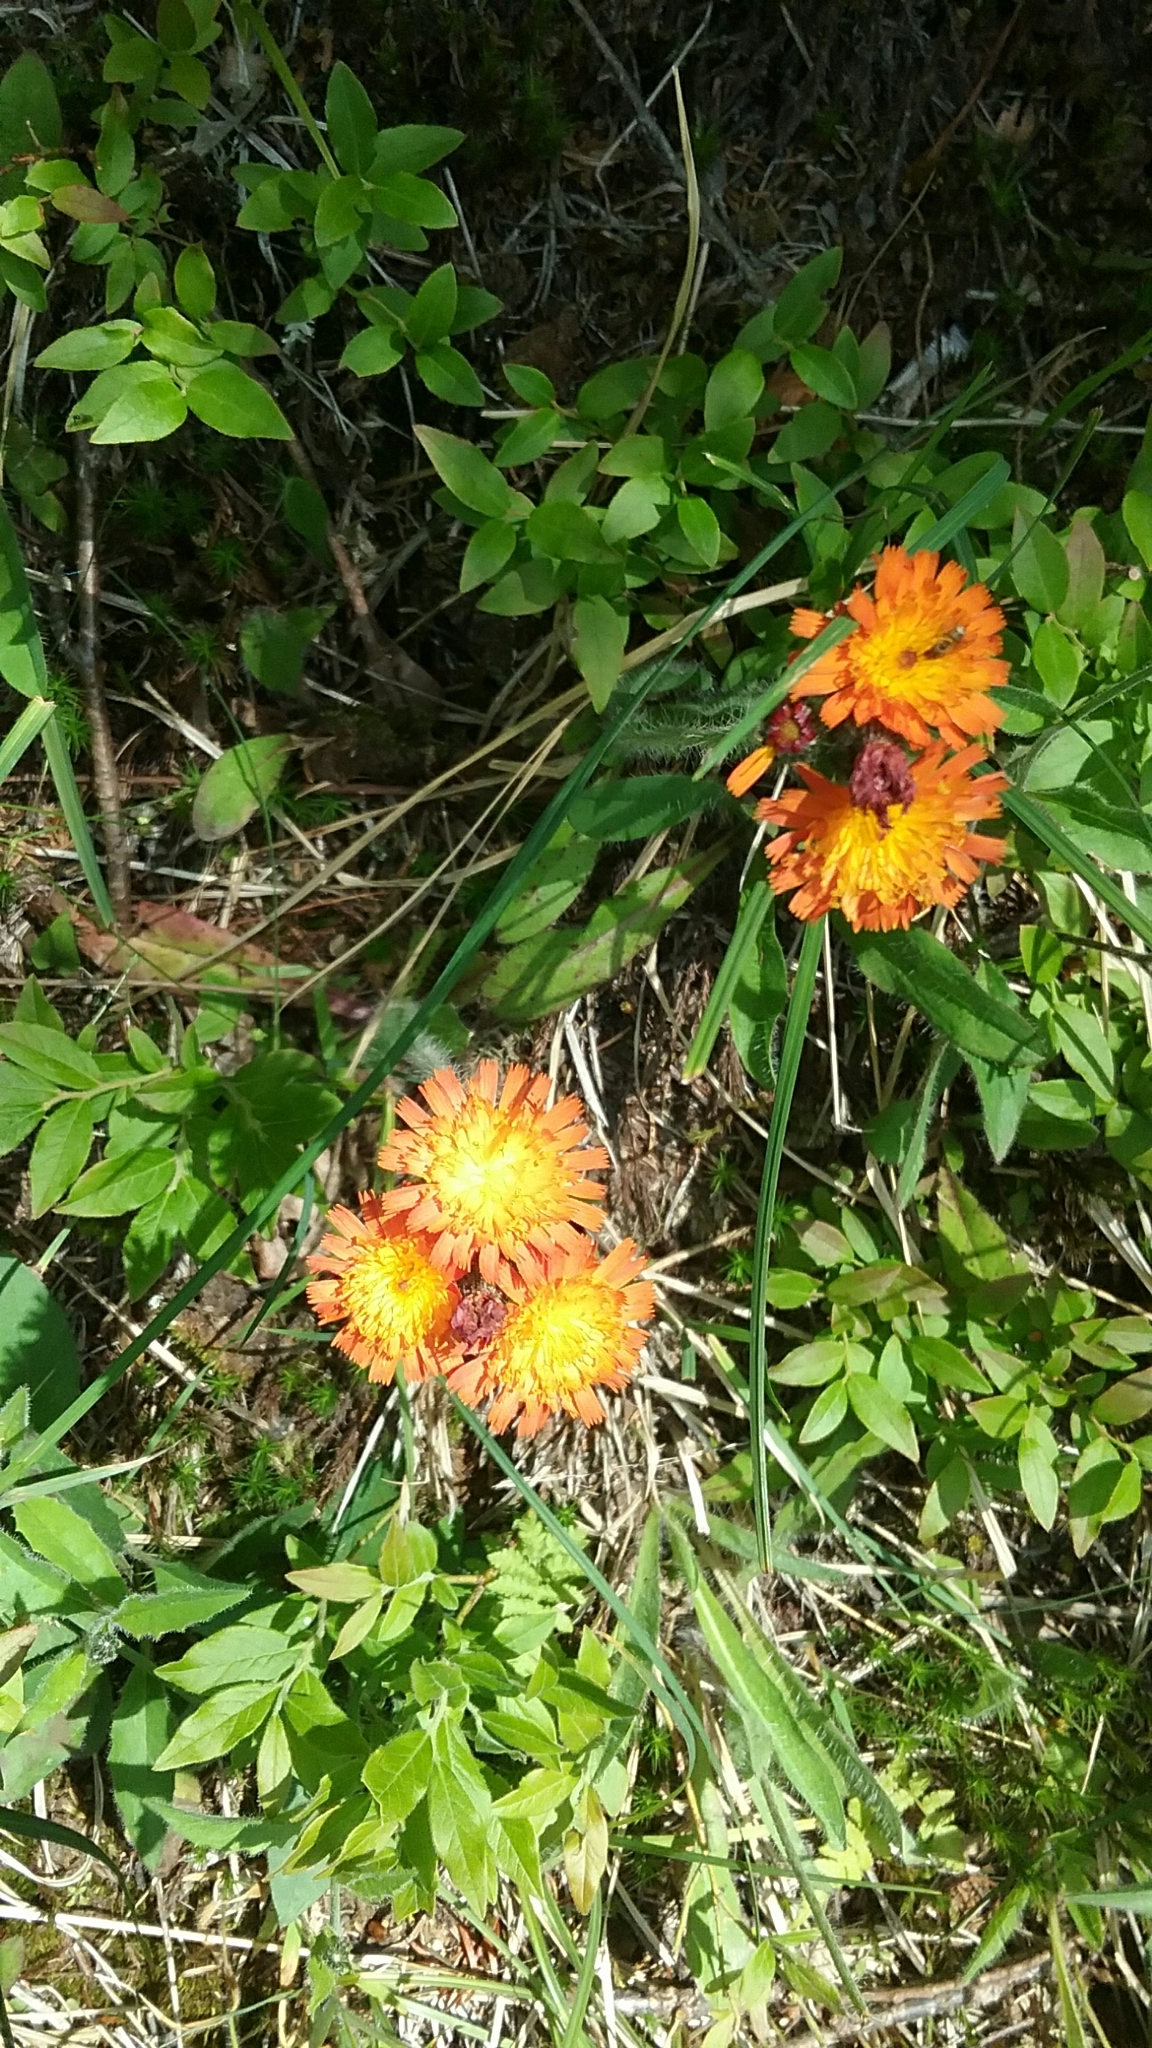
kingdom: Plantae
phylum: Tracheophyta
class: Magnoliopsida
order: Asterales
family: Asteraceae
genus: Pilosella
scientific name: Pilosella aurantiaca
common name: Fox-and-cubs
